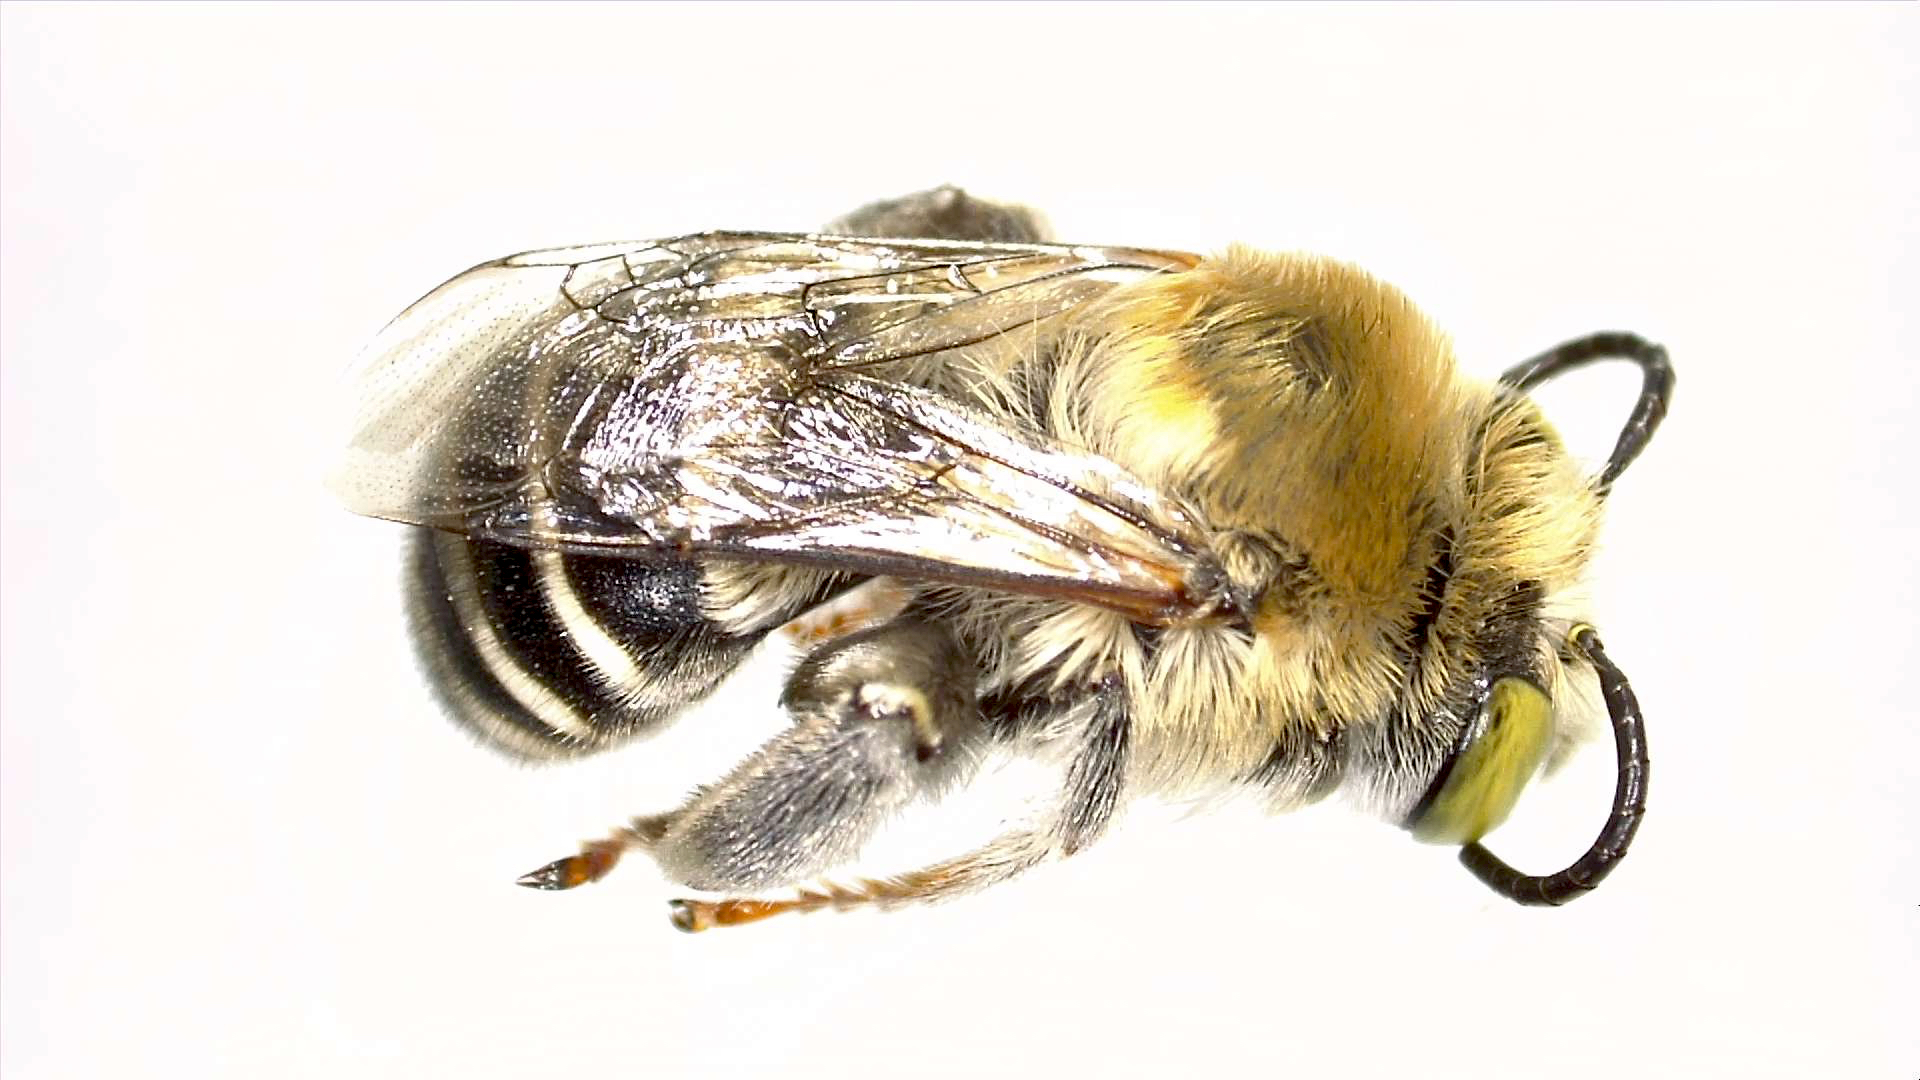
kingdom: Animalia
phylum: Arthropoda
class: Insecta
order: Hymenoptera
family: Apidae
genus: Anthophora
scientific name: Anthophora californica
